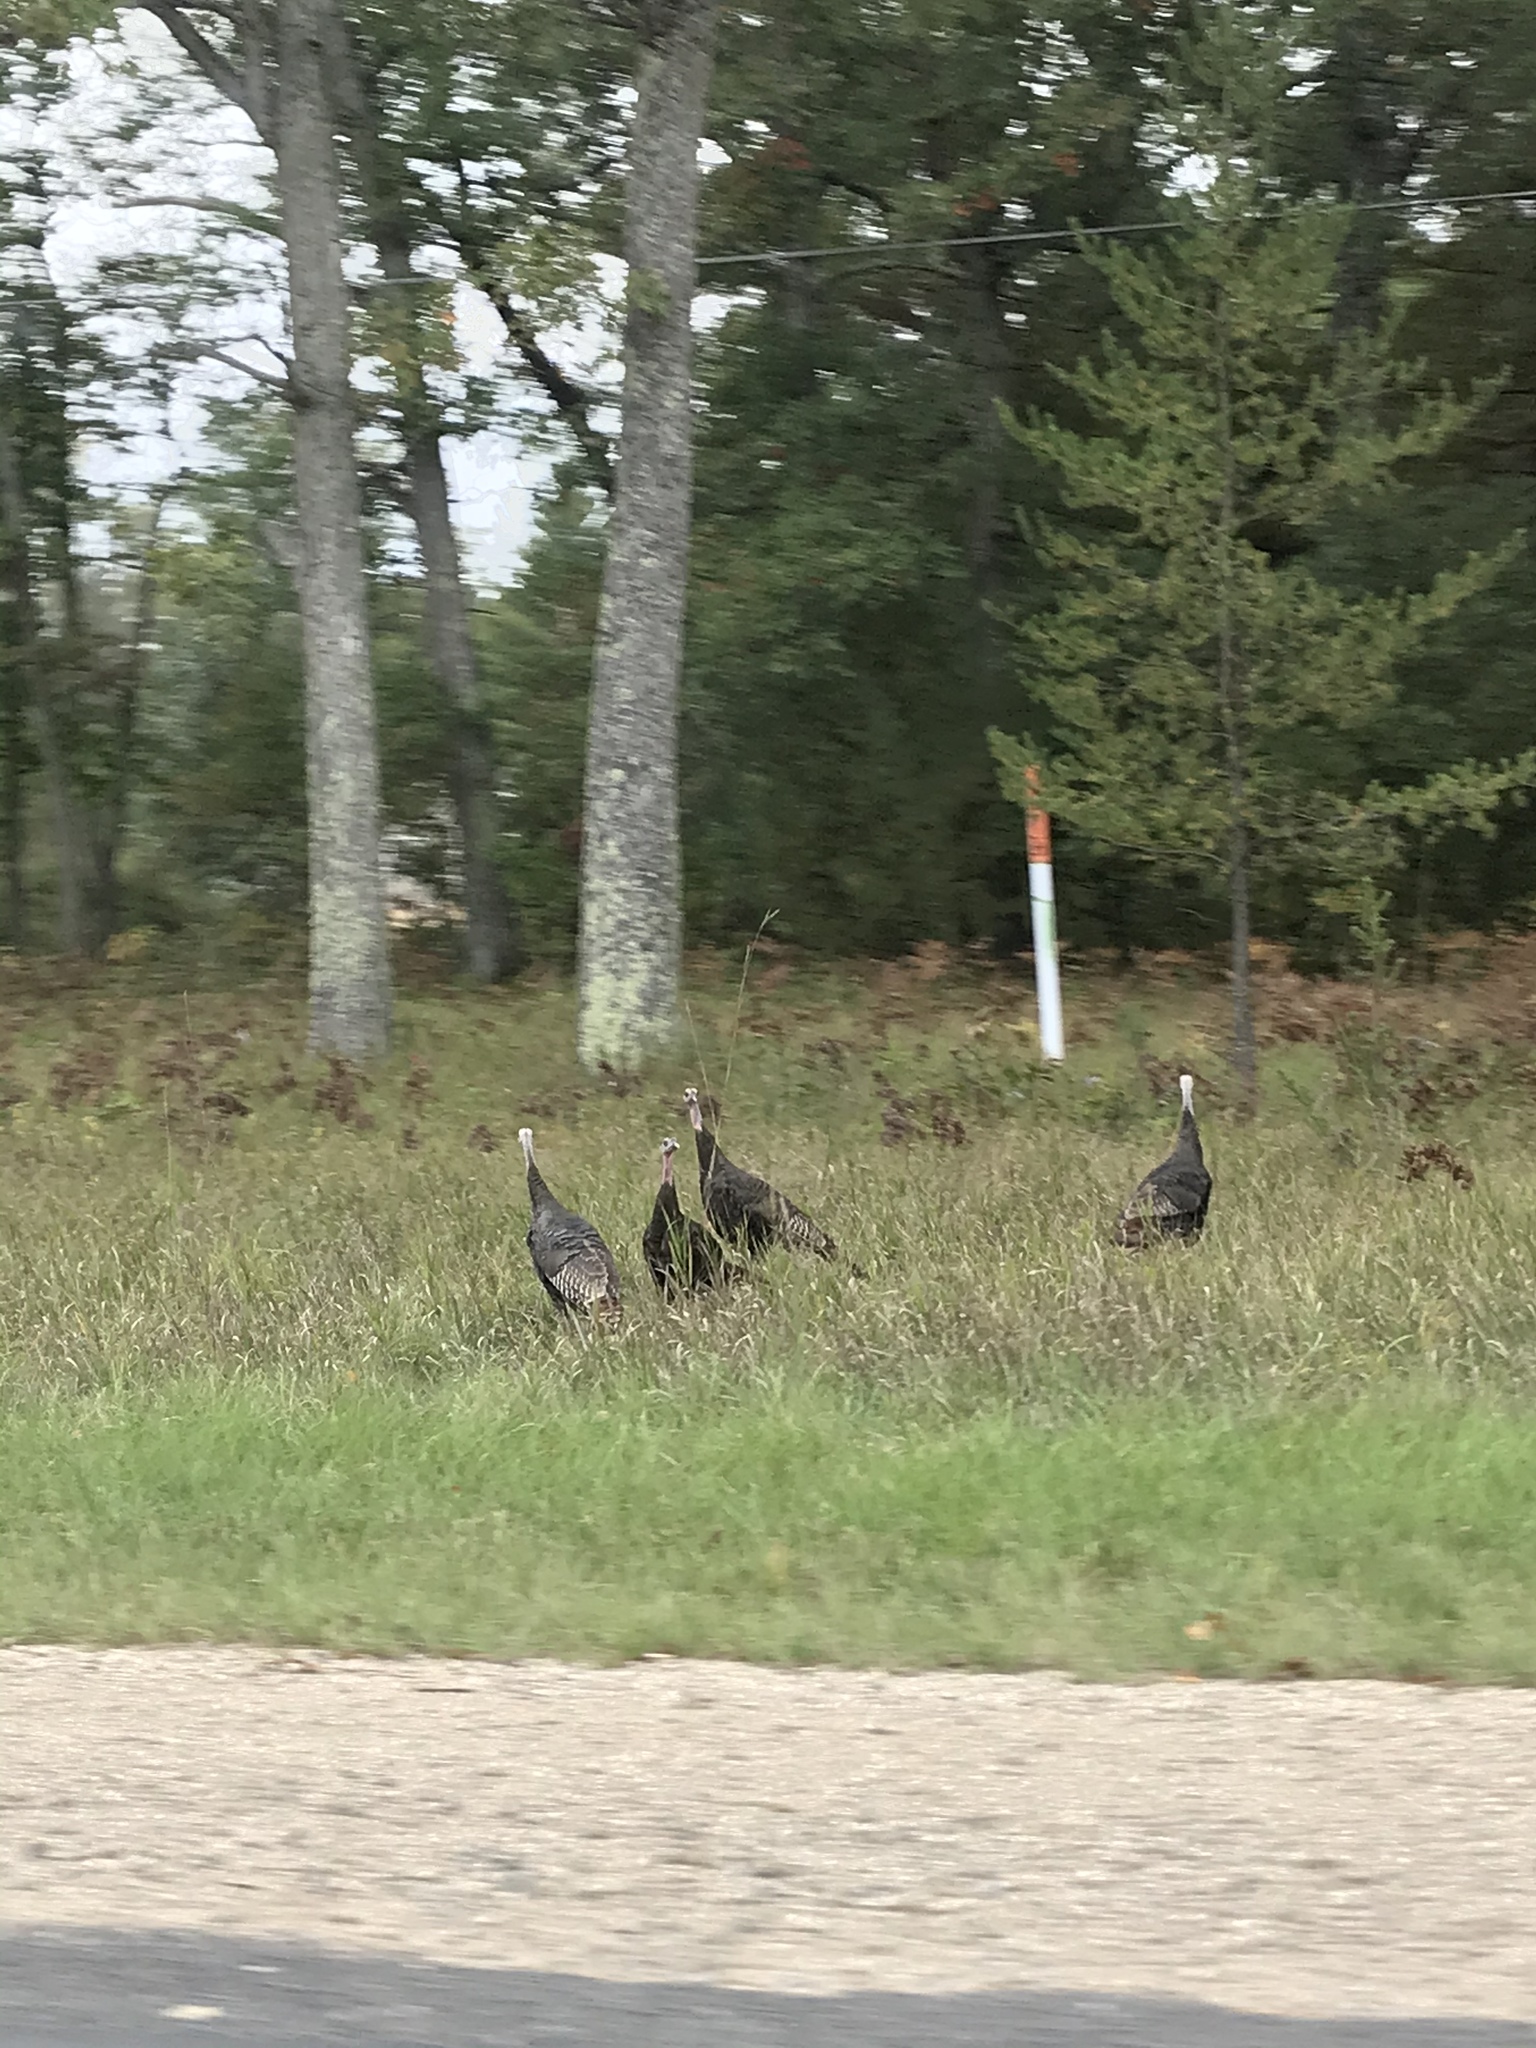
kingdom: Animalia
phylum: Chordata
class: Aves
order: Galliformes
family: Phasianidae
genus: Meleagris
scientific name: Meleagris gallopavo
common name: Wild turkey
